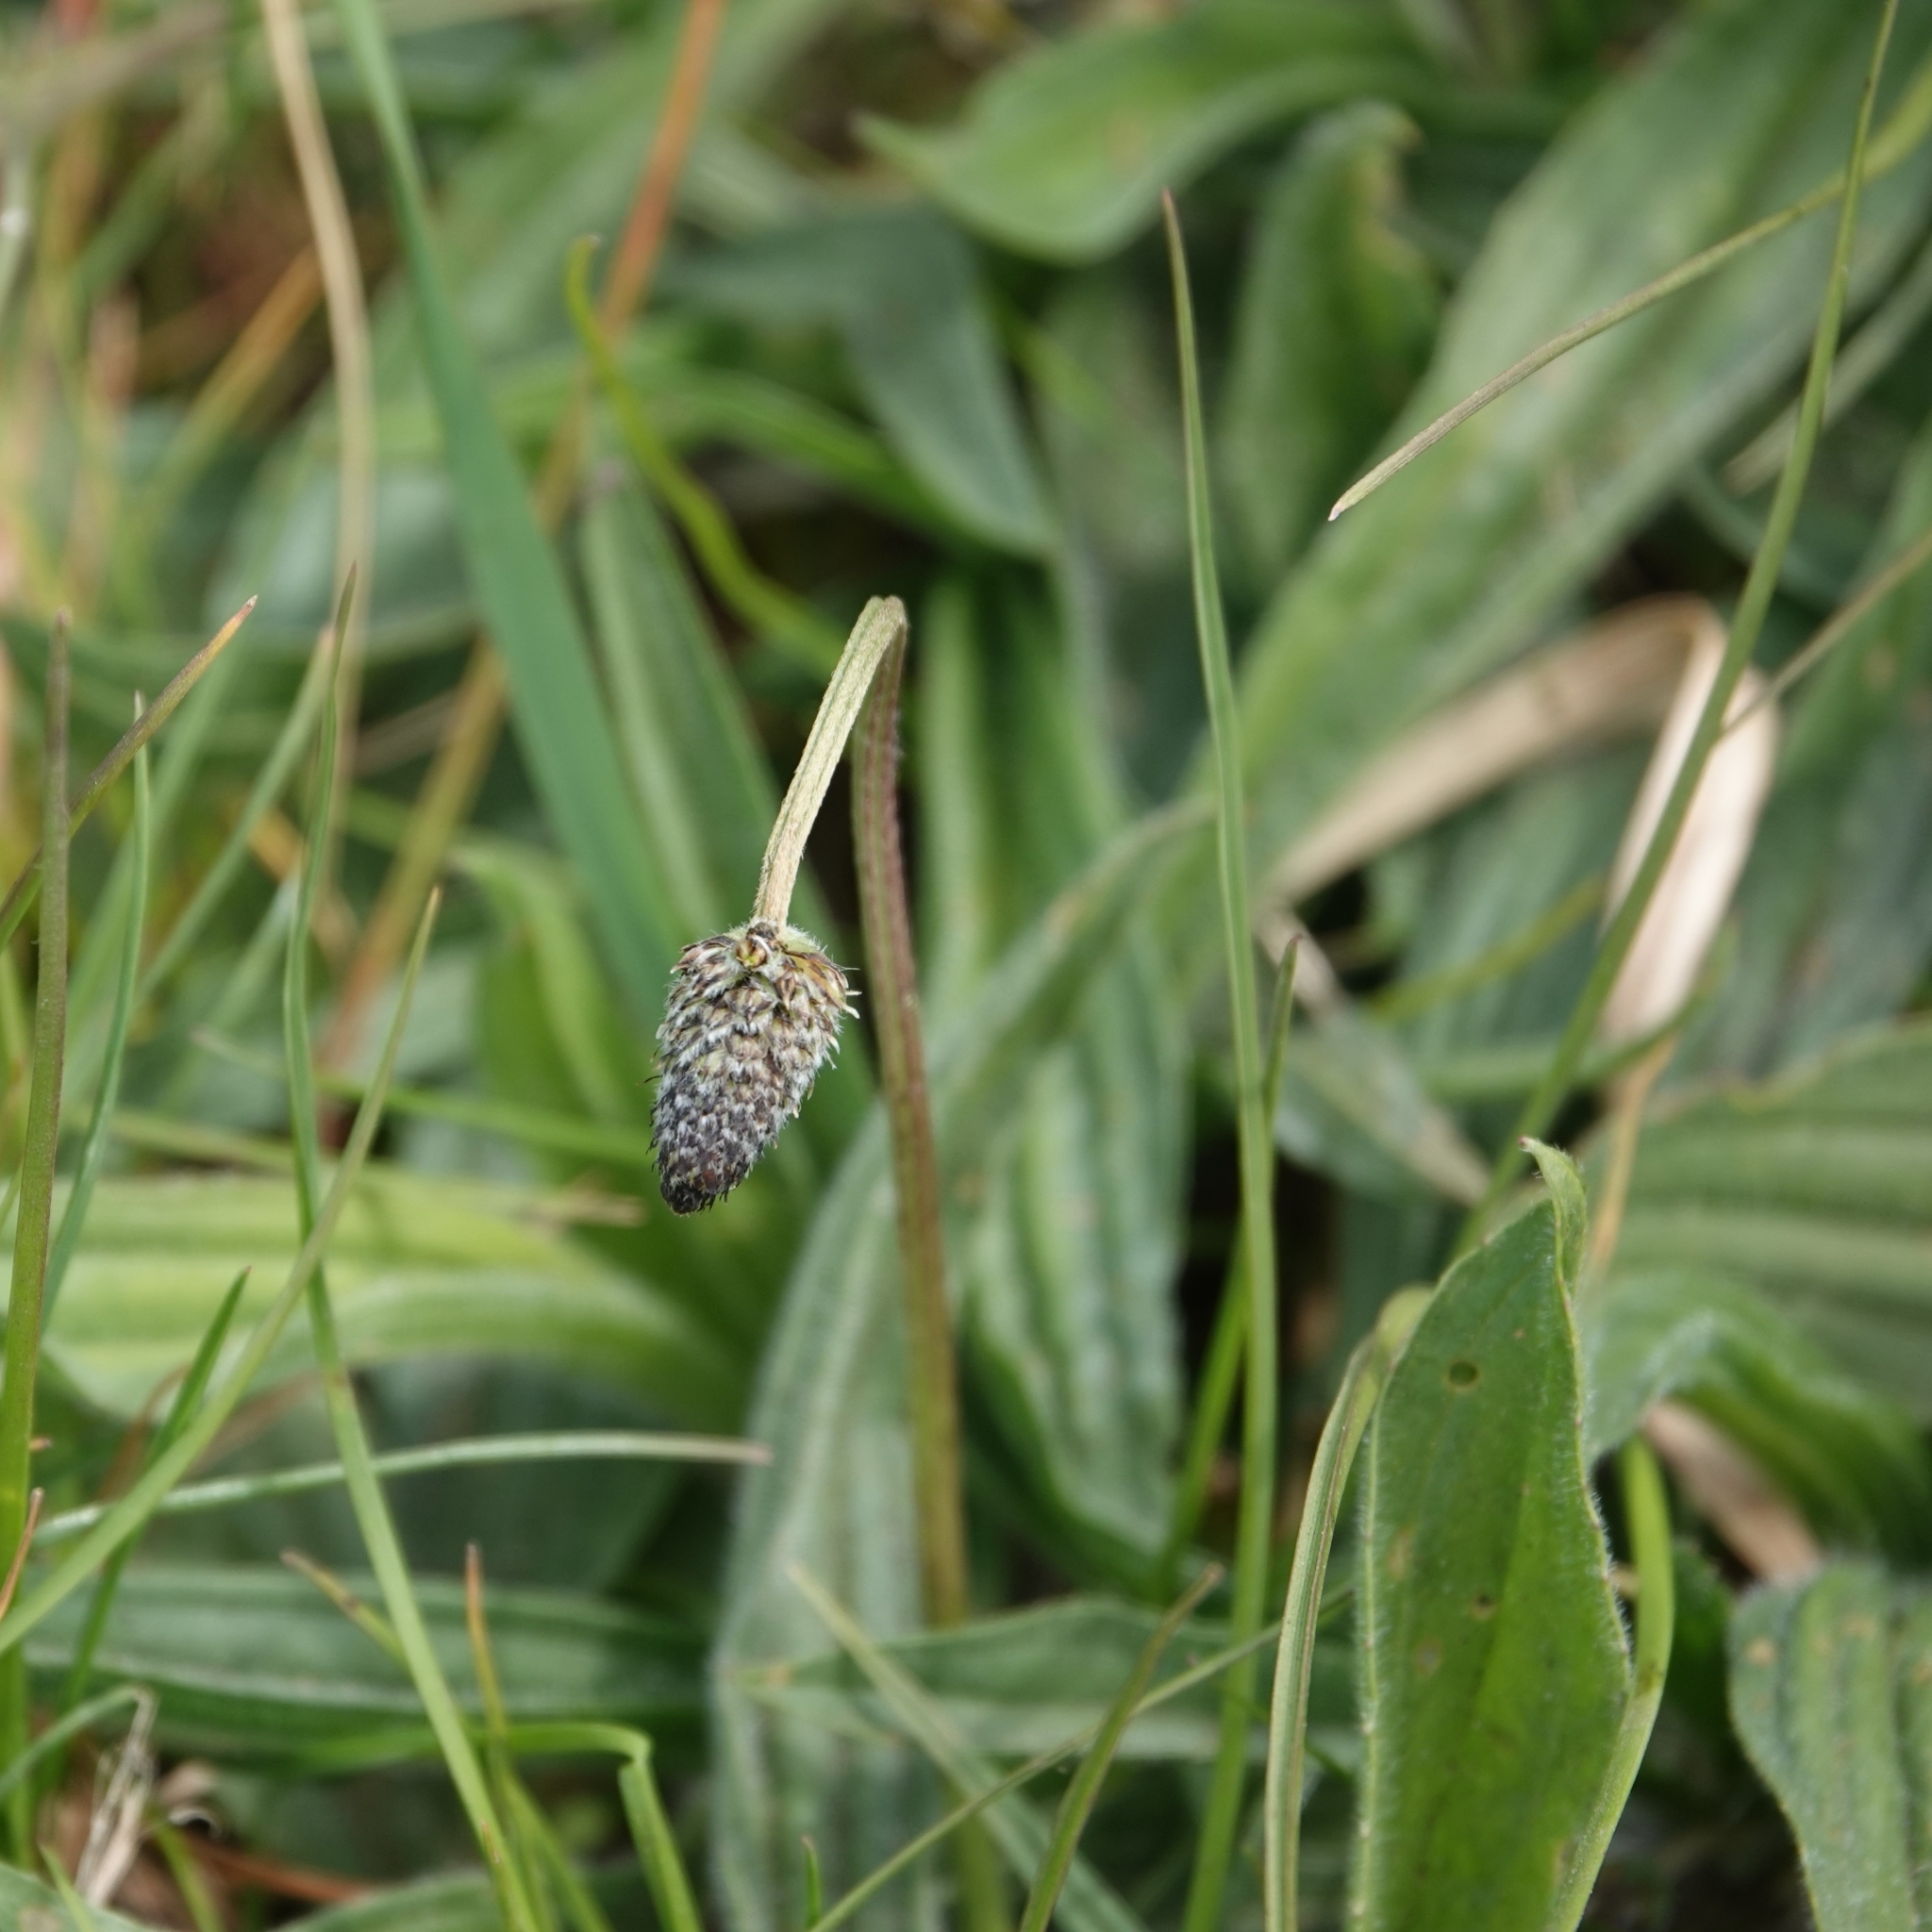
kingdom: Plantae
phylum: Tracheophyta
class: Magnoliopsida
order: Lamiales
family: Plantaginaceae
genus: Plantago
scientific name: Plantago lanceolata
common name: Ribwort plantain
